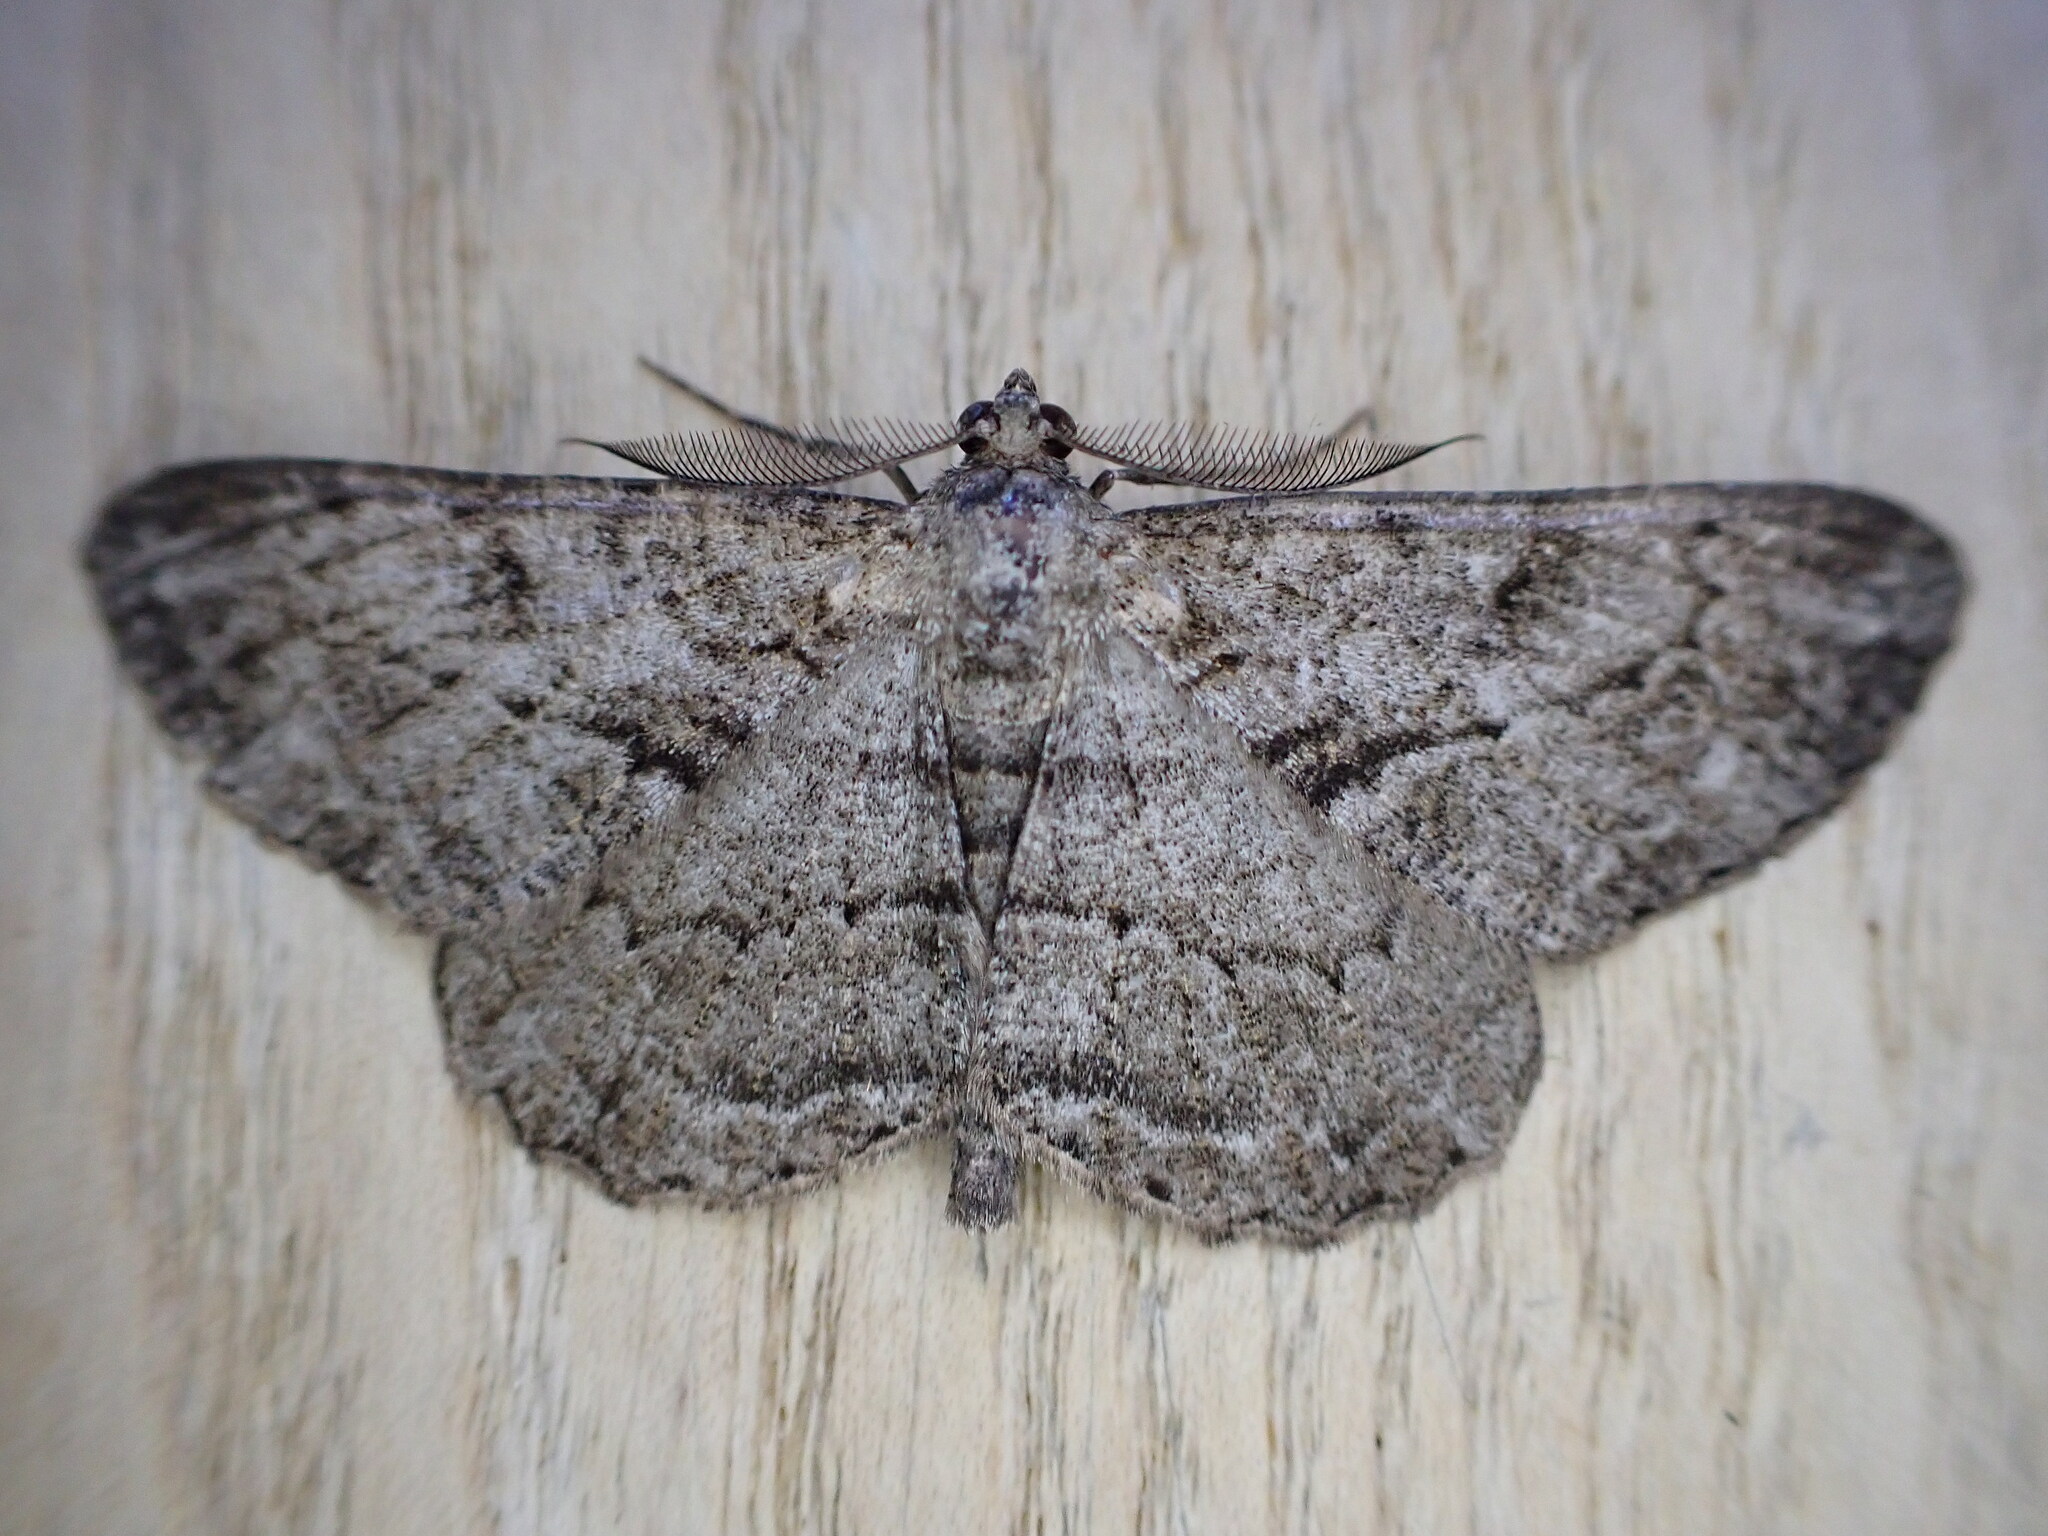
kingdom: Animalia
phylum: Arthropoda
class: Insecta
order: Lepidoptera
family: Geometridae
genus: Peribatodes
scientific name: Peribatodes rhomboidaria
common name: Willow beauty
